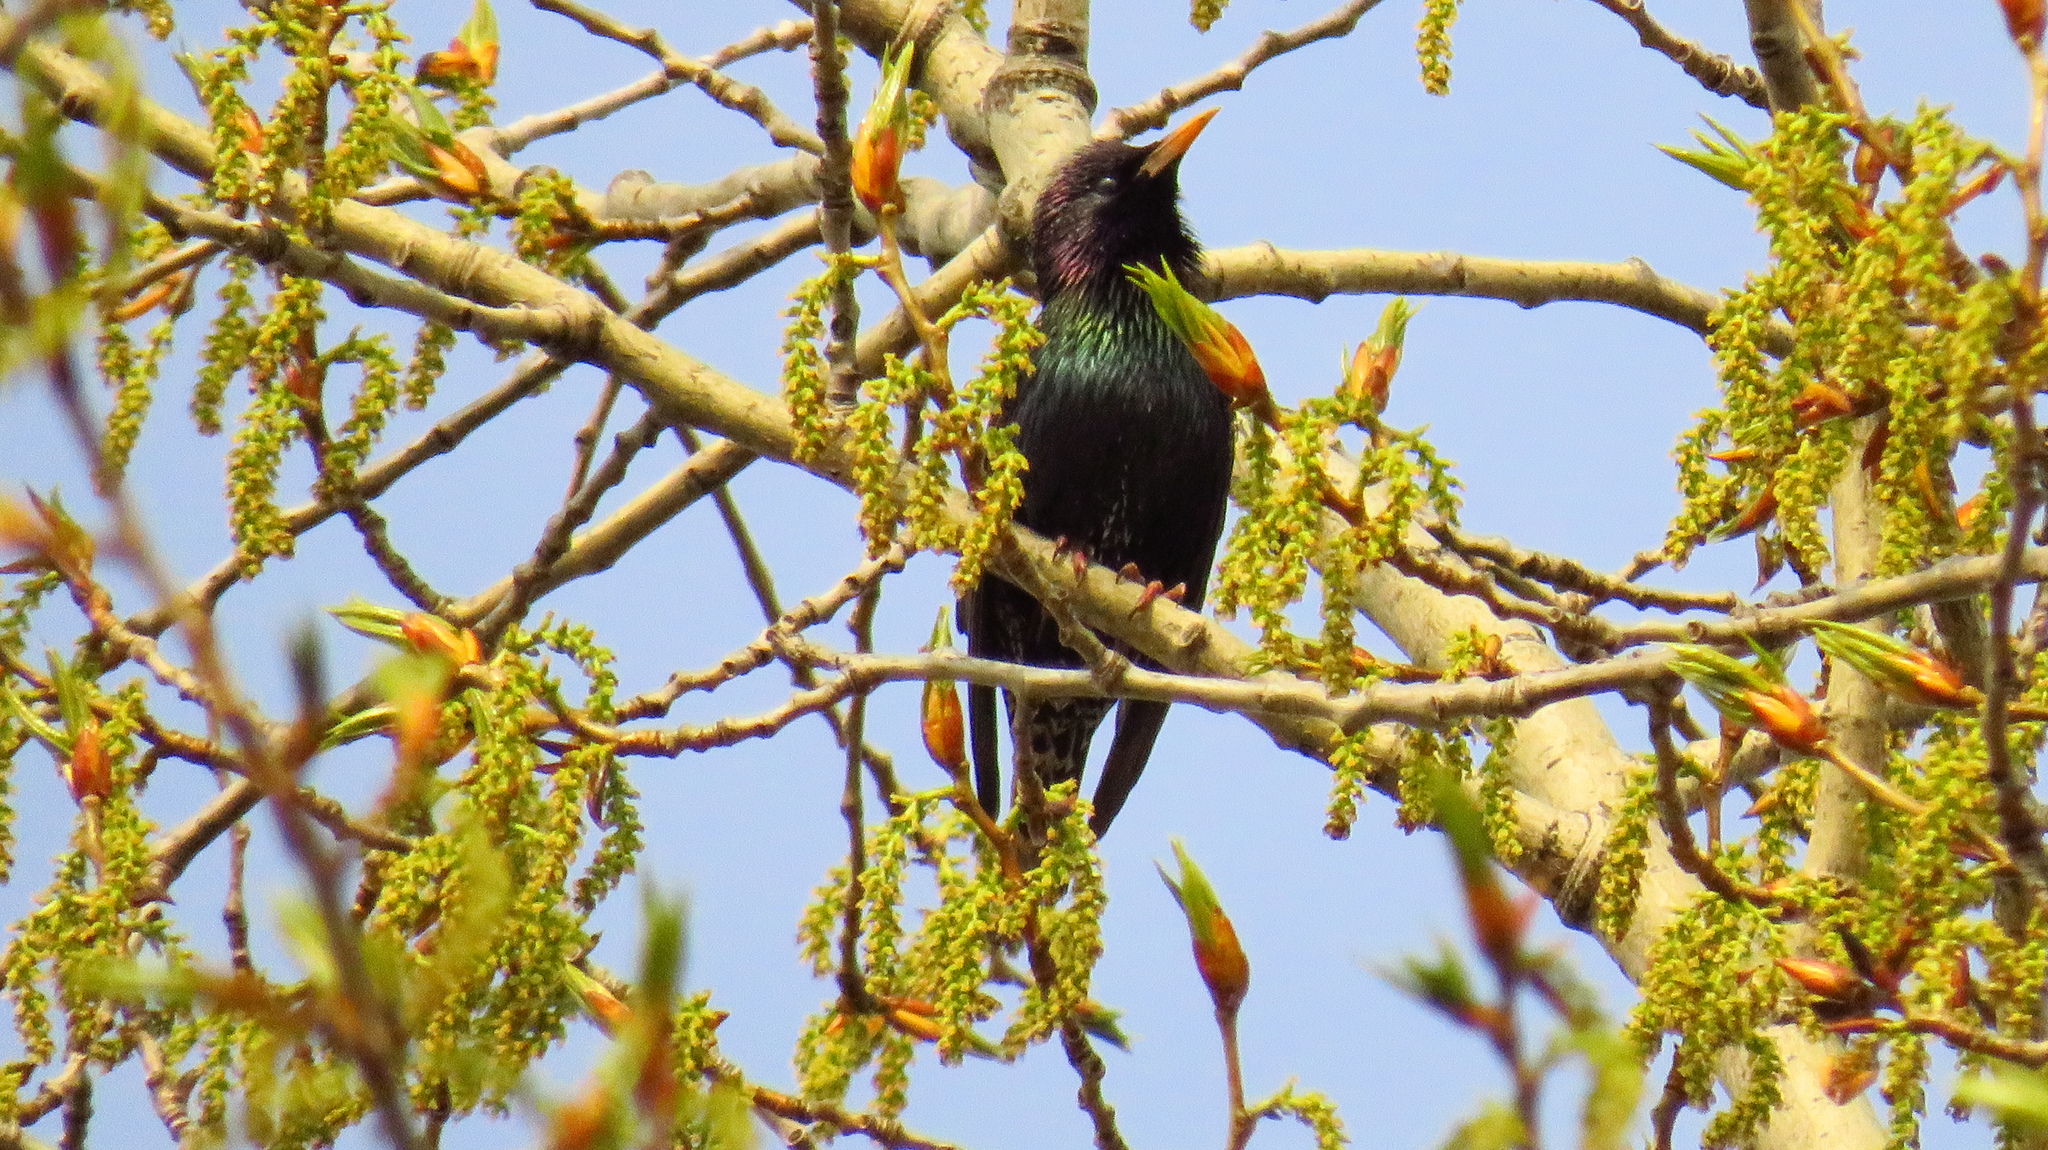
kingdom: Animalia
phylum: Chordata
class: Aves
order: Passeriformes
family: Sturnidae
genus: Sturnus
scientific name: Sturnus vulgaris
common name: Common starling
